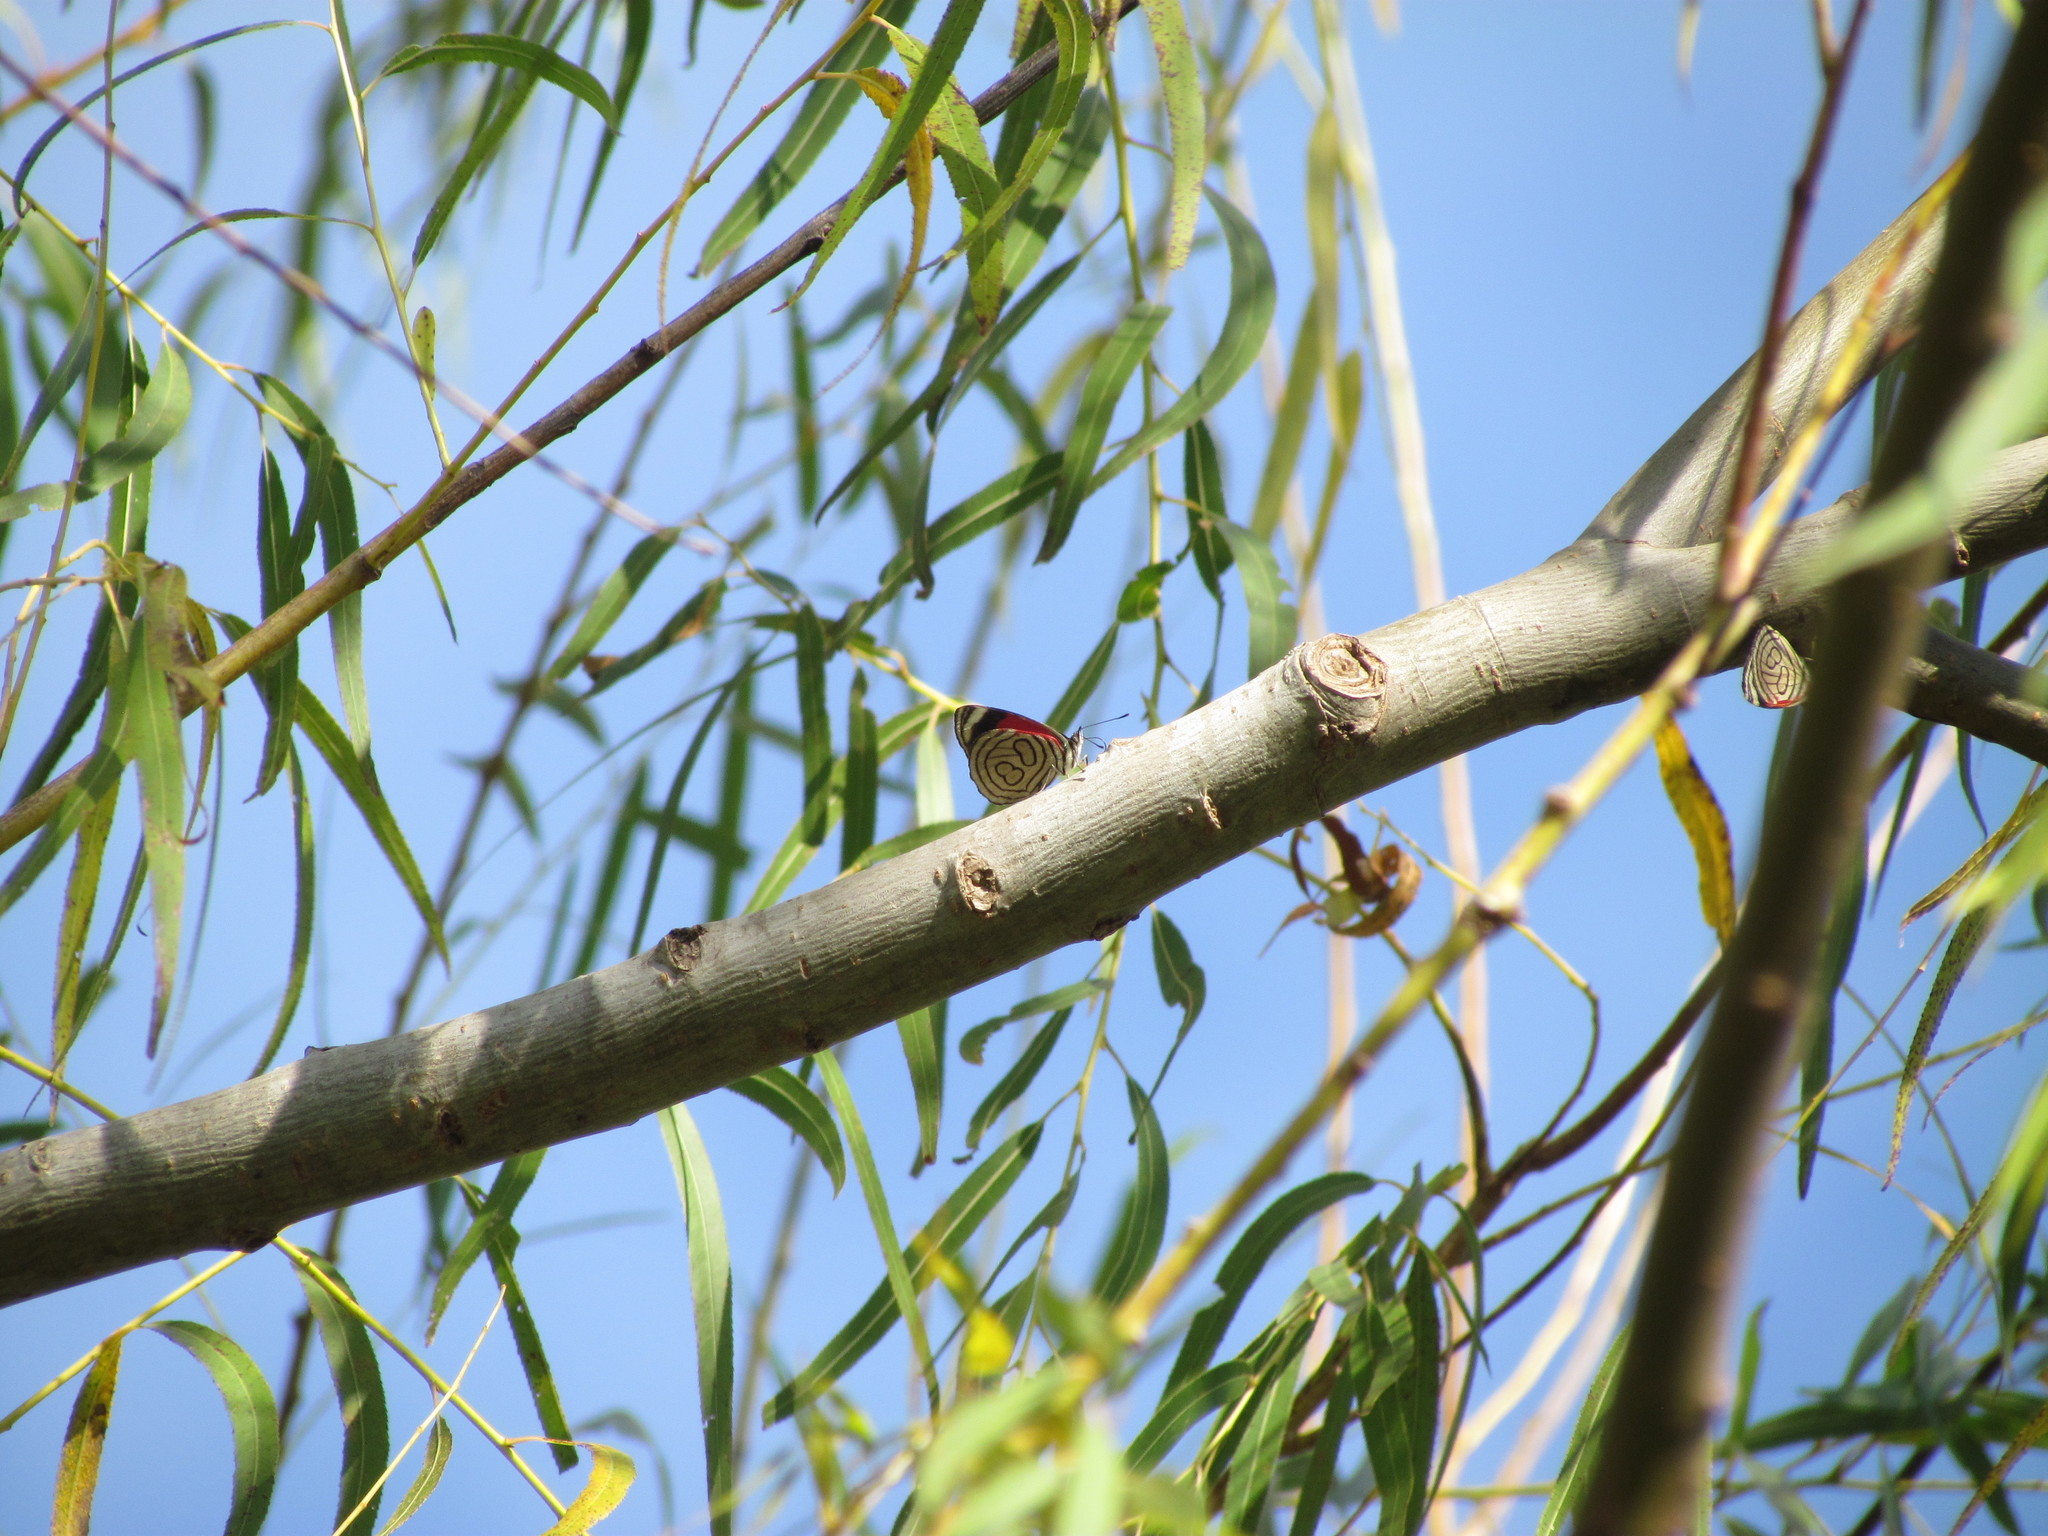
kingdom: Animalia
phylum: Arthropoda
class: Insecta
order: Lepidoptera
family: Nymphalidae
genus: Diaethria
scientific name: Diaethria candrena
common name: Number eighty
